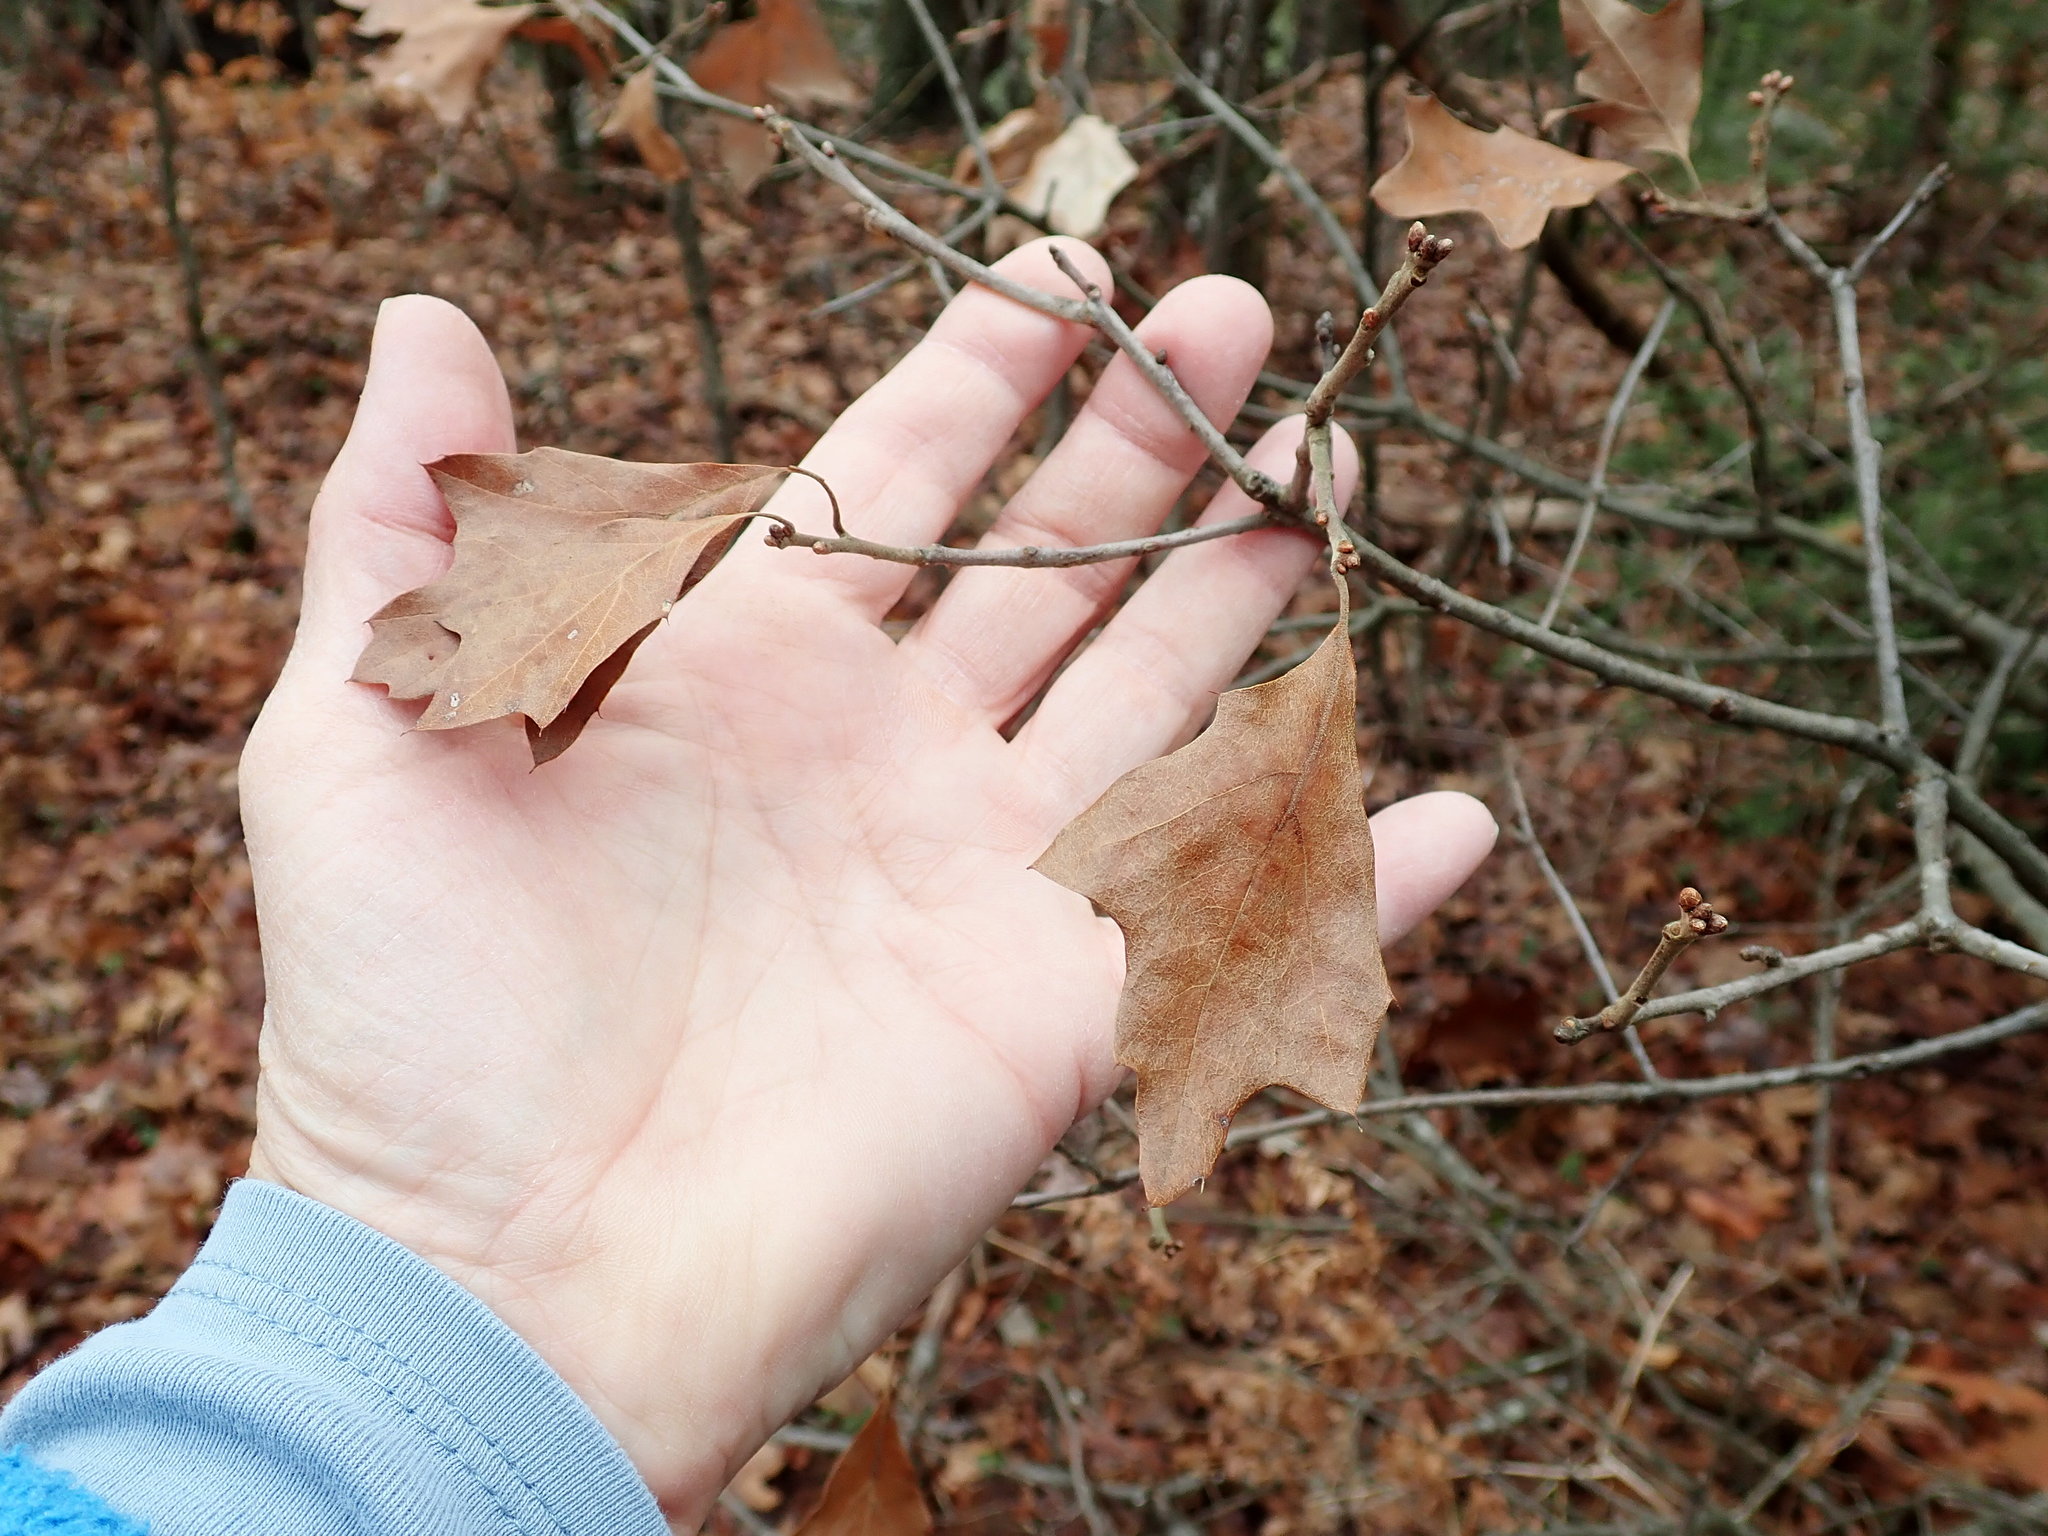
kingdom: Plantae
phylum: Tracheophyta
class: Magnoliopsida
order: Fagales
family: Fagaceae
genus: Quercus
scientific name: Quercus ilicifolia
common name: Bear oak
